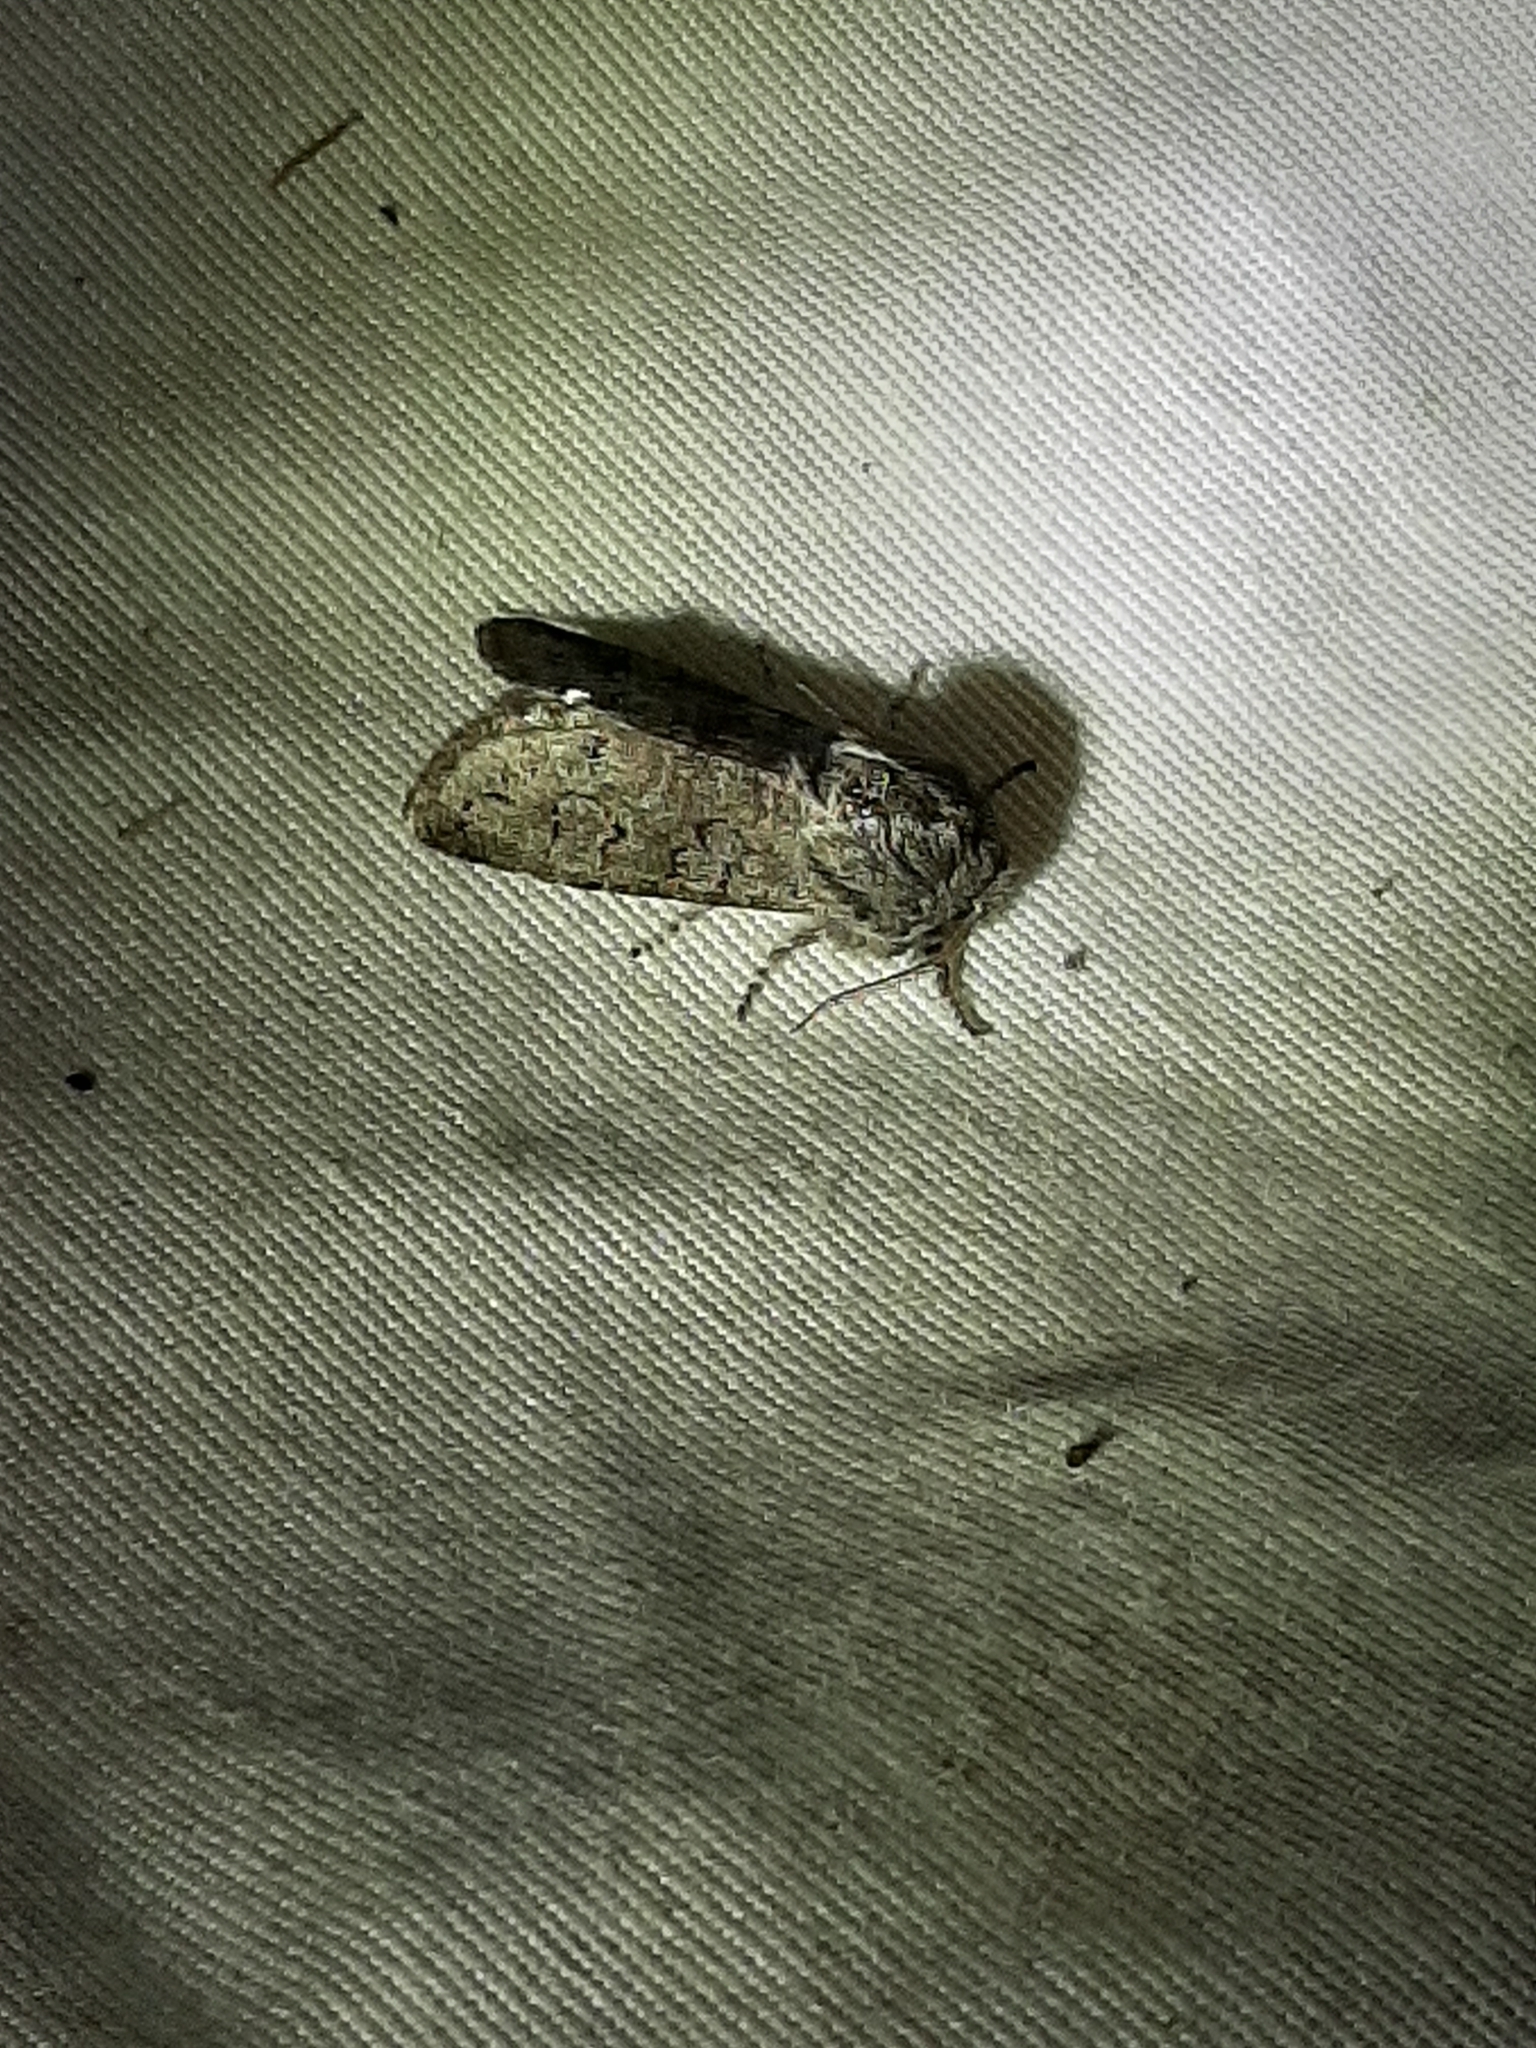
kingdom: Animalia
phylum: Arthropoda
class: Insecta
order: Lepidoptera
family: Noctuidae
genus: Psaphida
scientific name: Psaphida rolandi
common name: Roland's sallow
